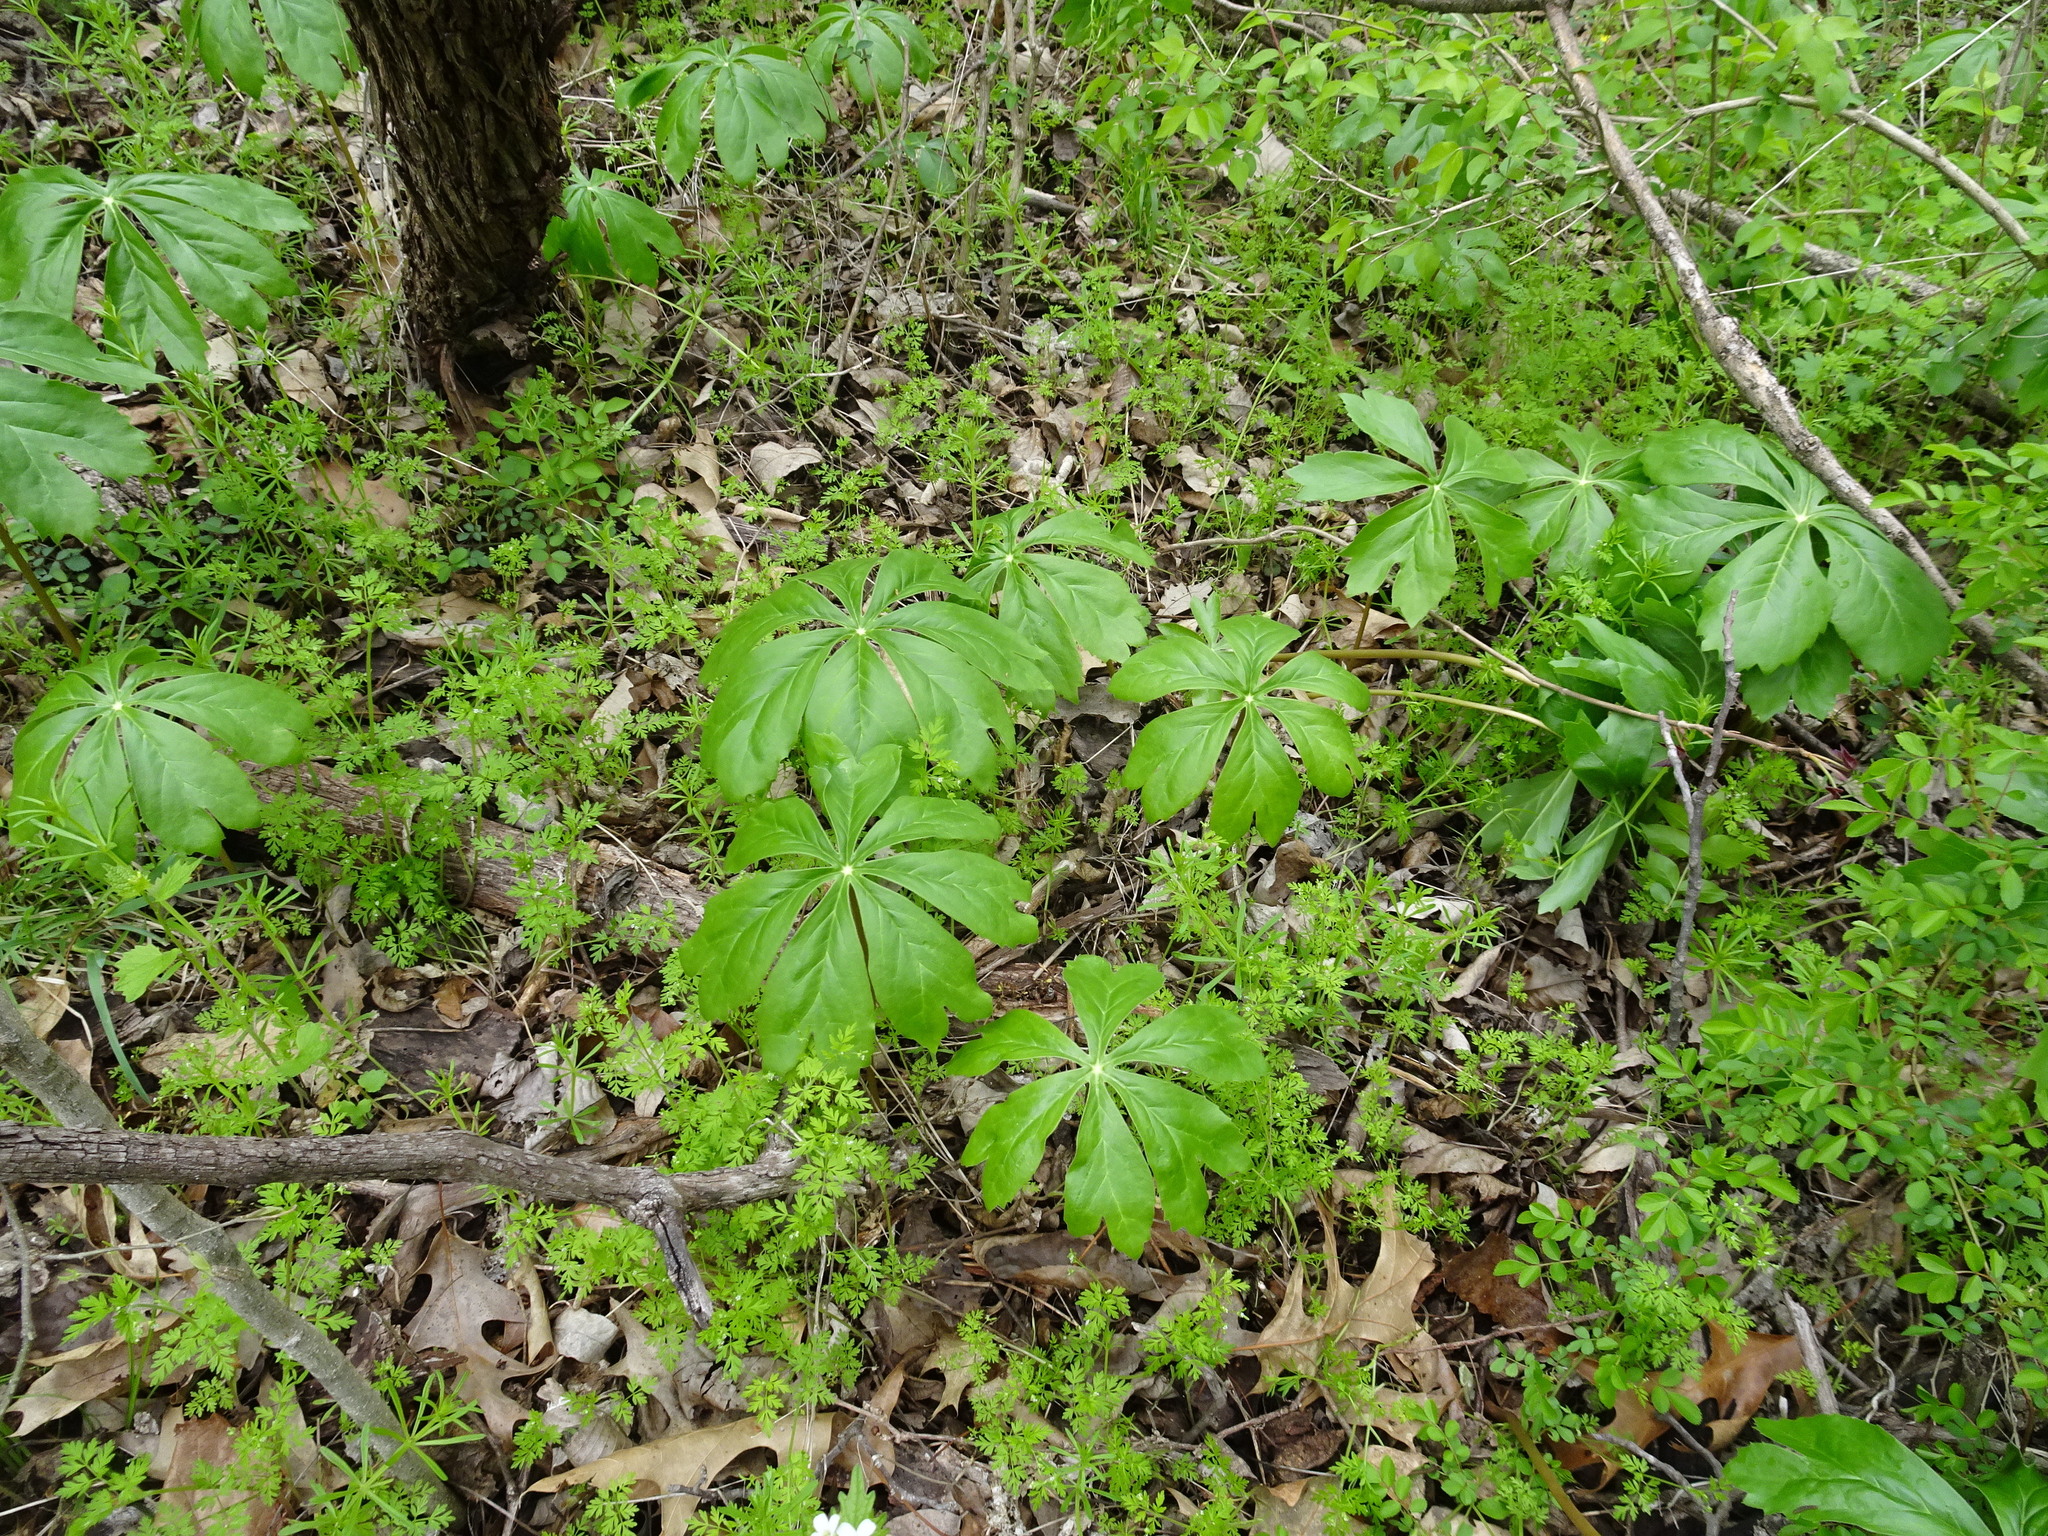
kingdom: Plantae
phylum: Tracheophyta
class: Magnoliopsida
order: Ranunculales
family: Berberidaceae
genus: Podophyllum
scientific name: Podophyllum peltatum
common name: Wild mandrake
